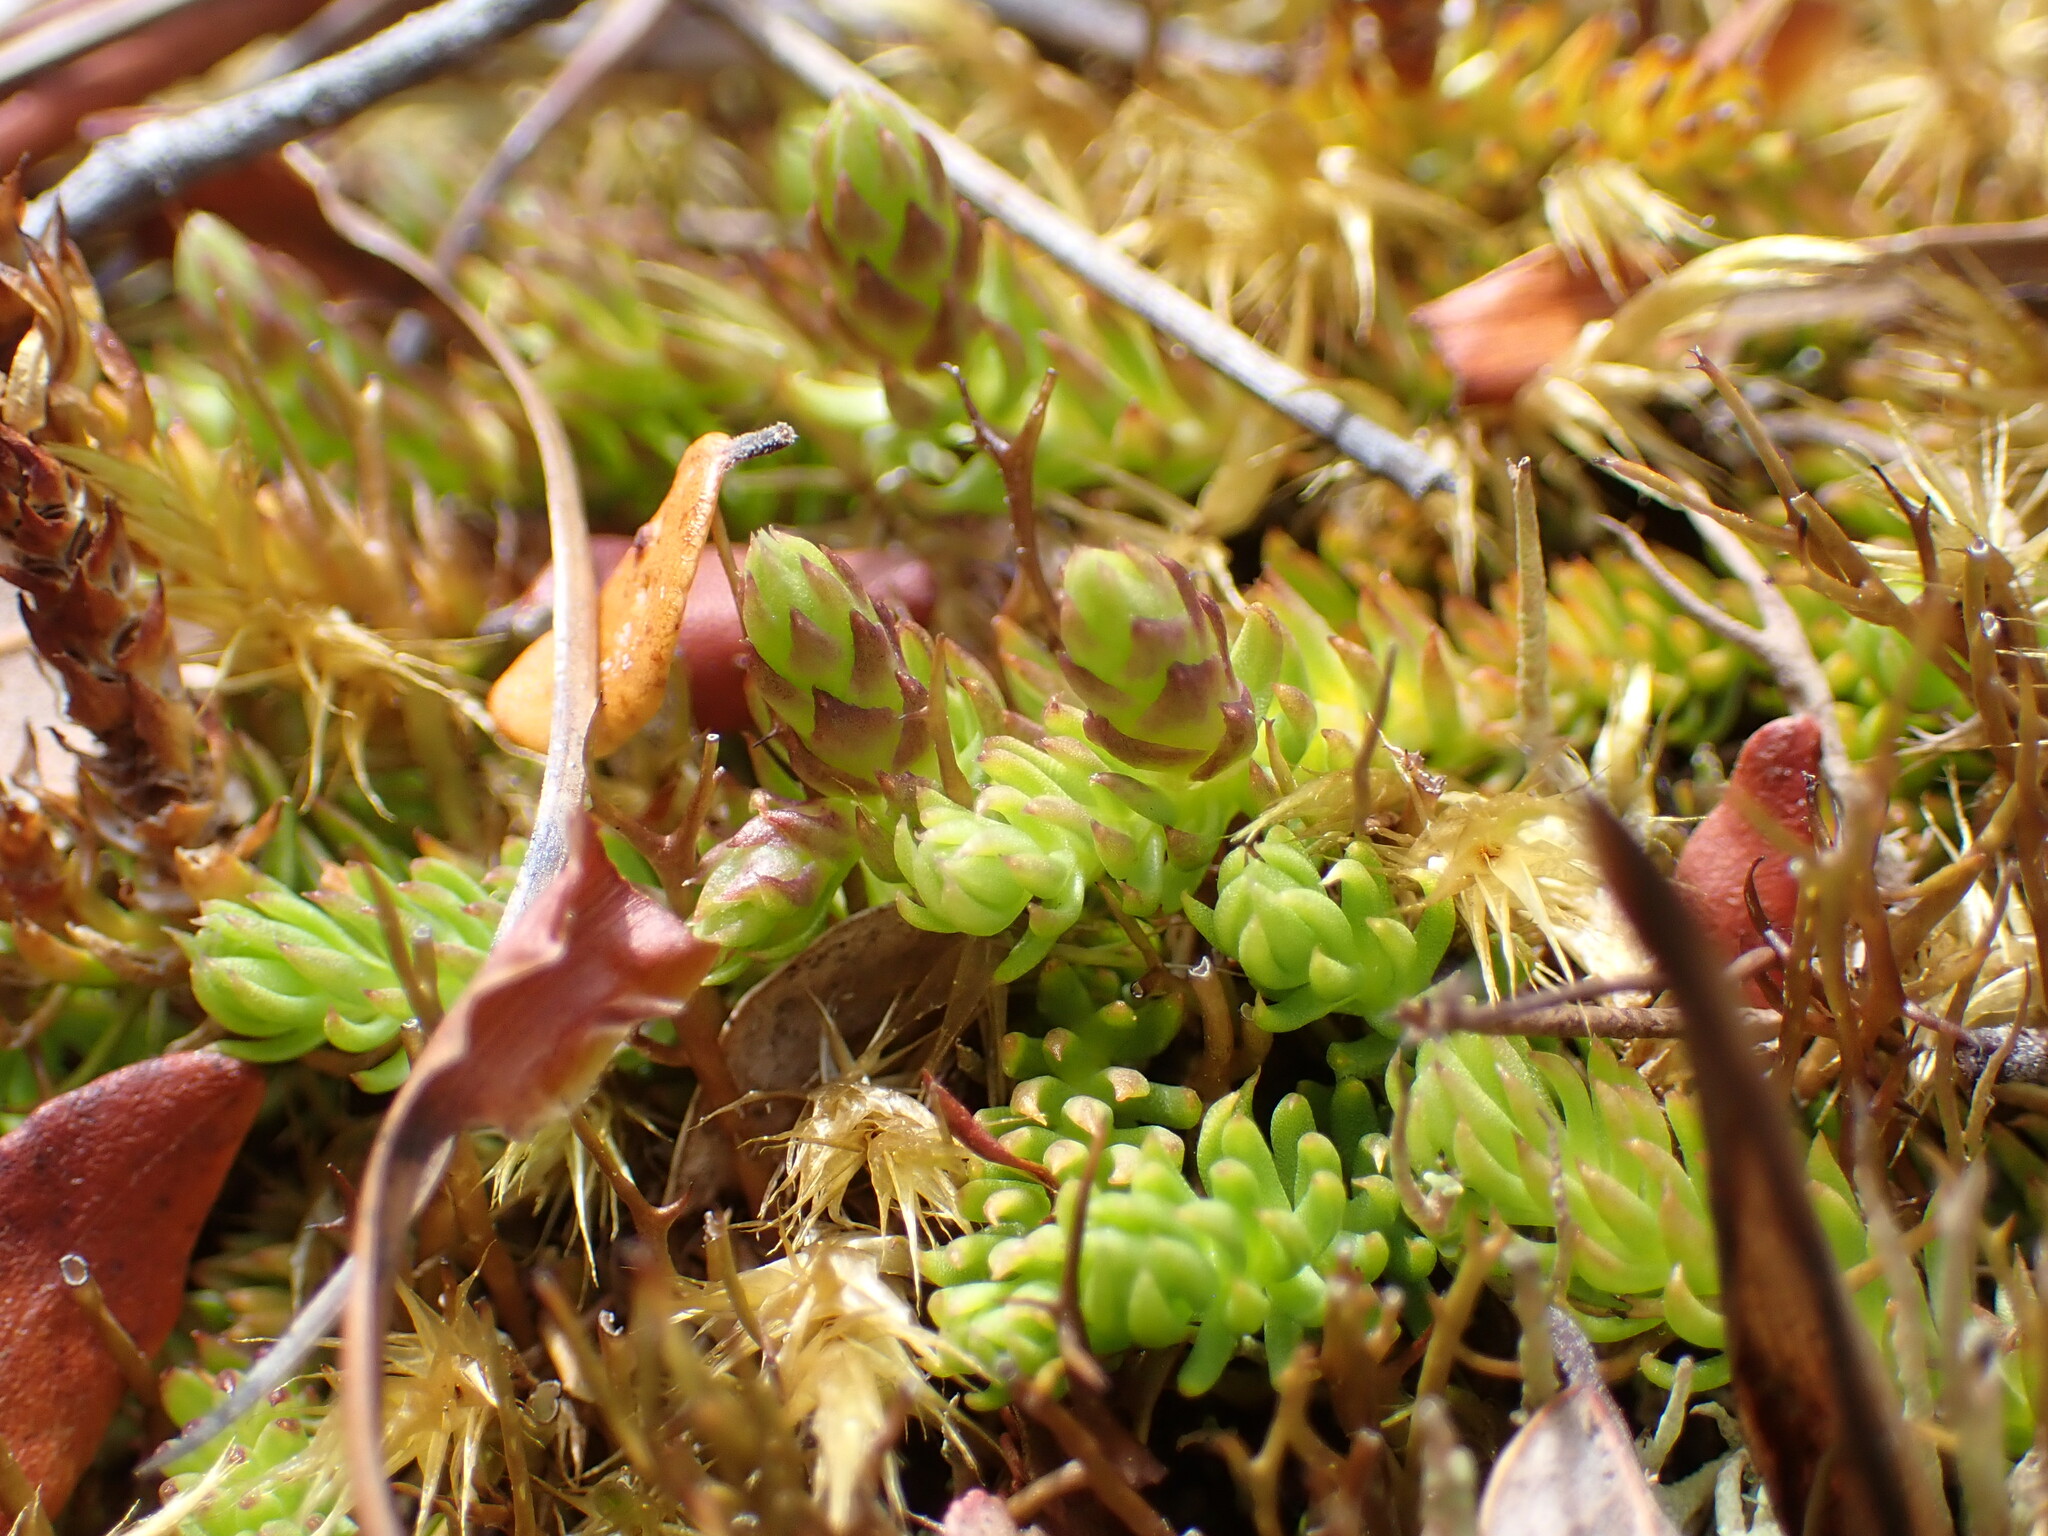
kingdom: Plantae
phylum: Tracheophyta
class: Lycopodiopsida
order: Lycopodiales
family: Lycopodiaceae
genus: Lateristachys
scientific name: Lateristachys diffusa
